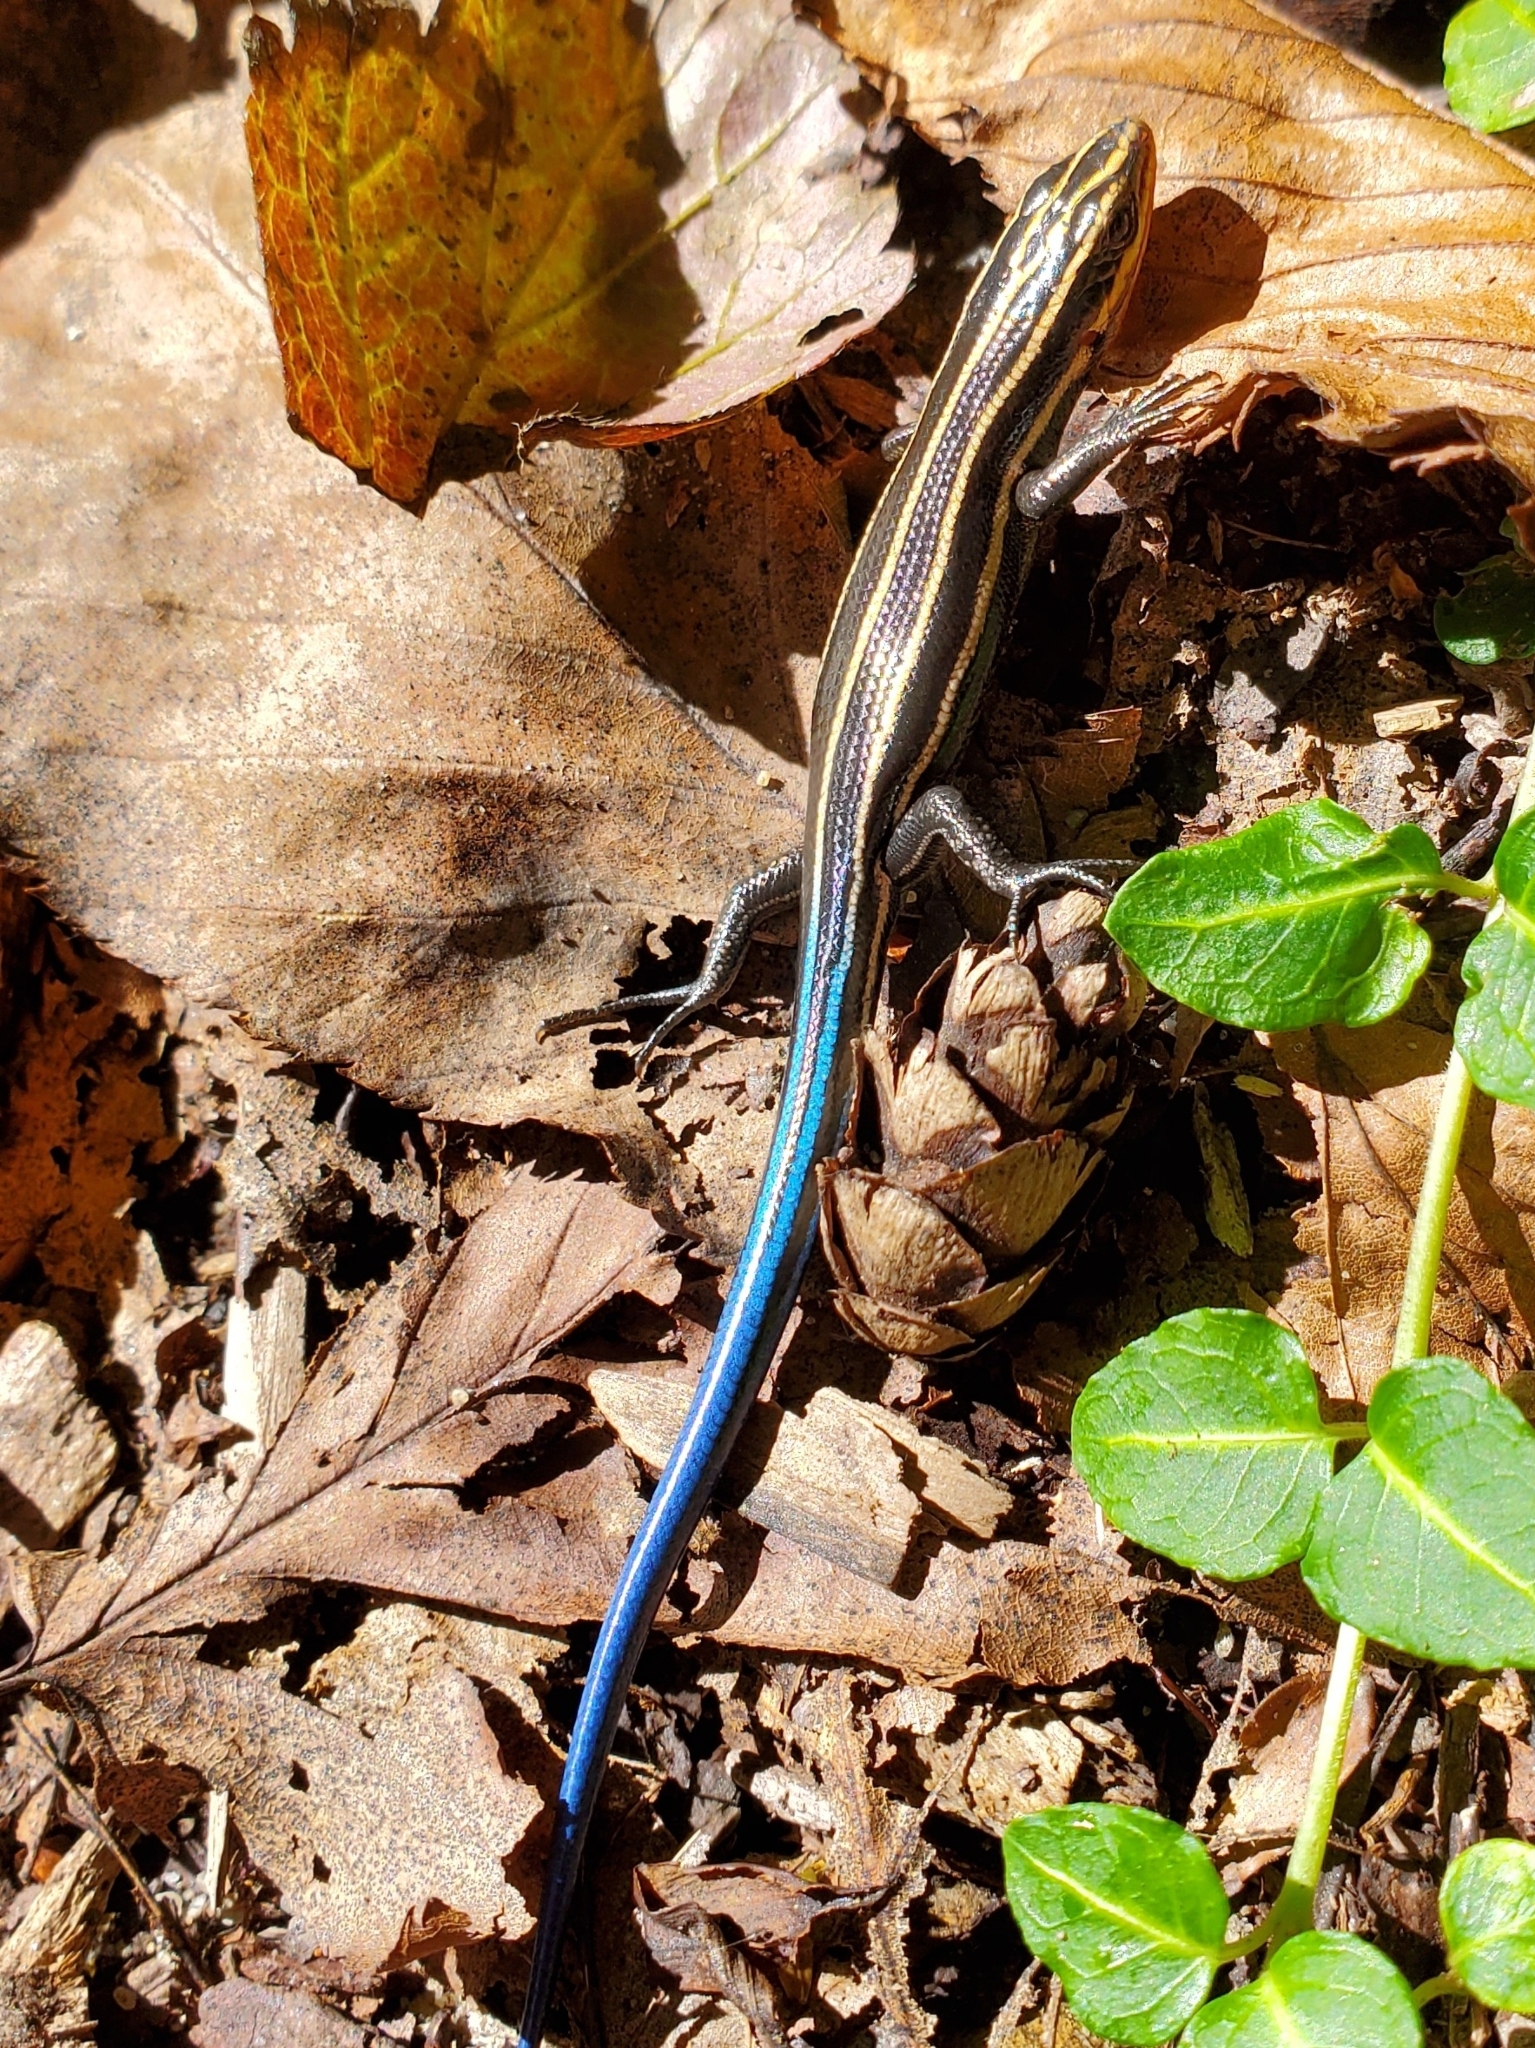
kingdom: Animalia
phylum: Chordata
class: Squamata
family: Scincidae
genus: Plestiodon
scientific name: Plestiodon fasciatus
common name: Five-lined skink
